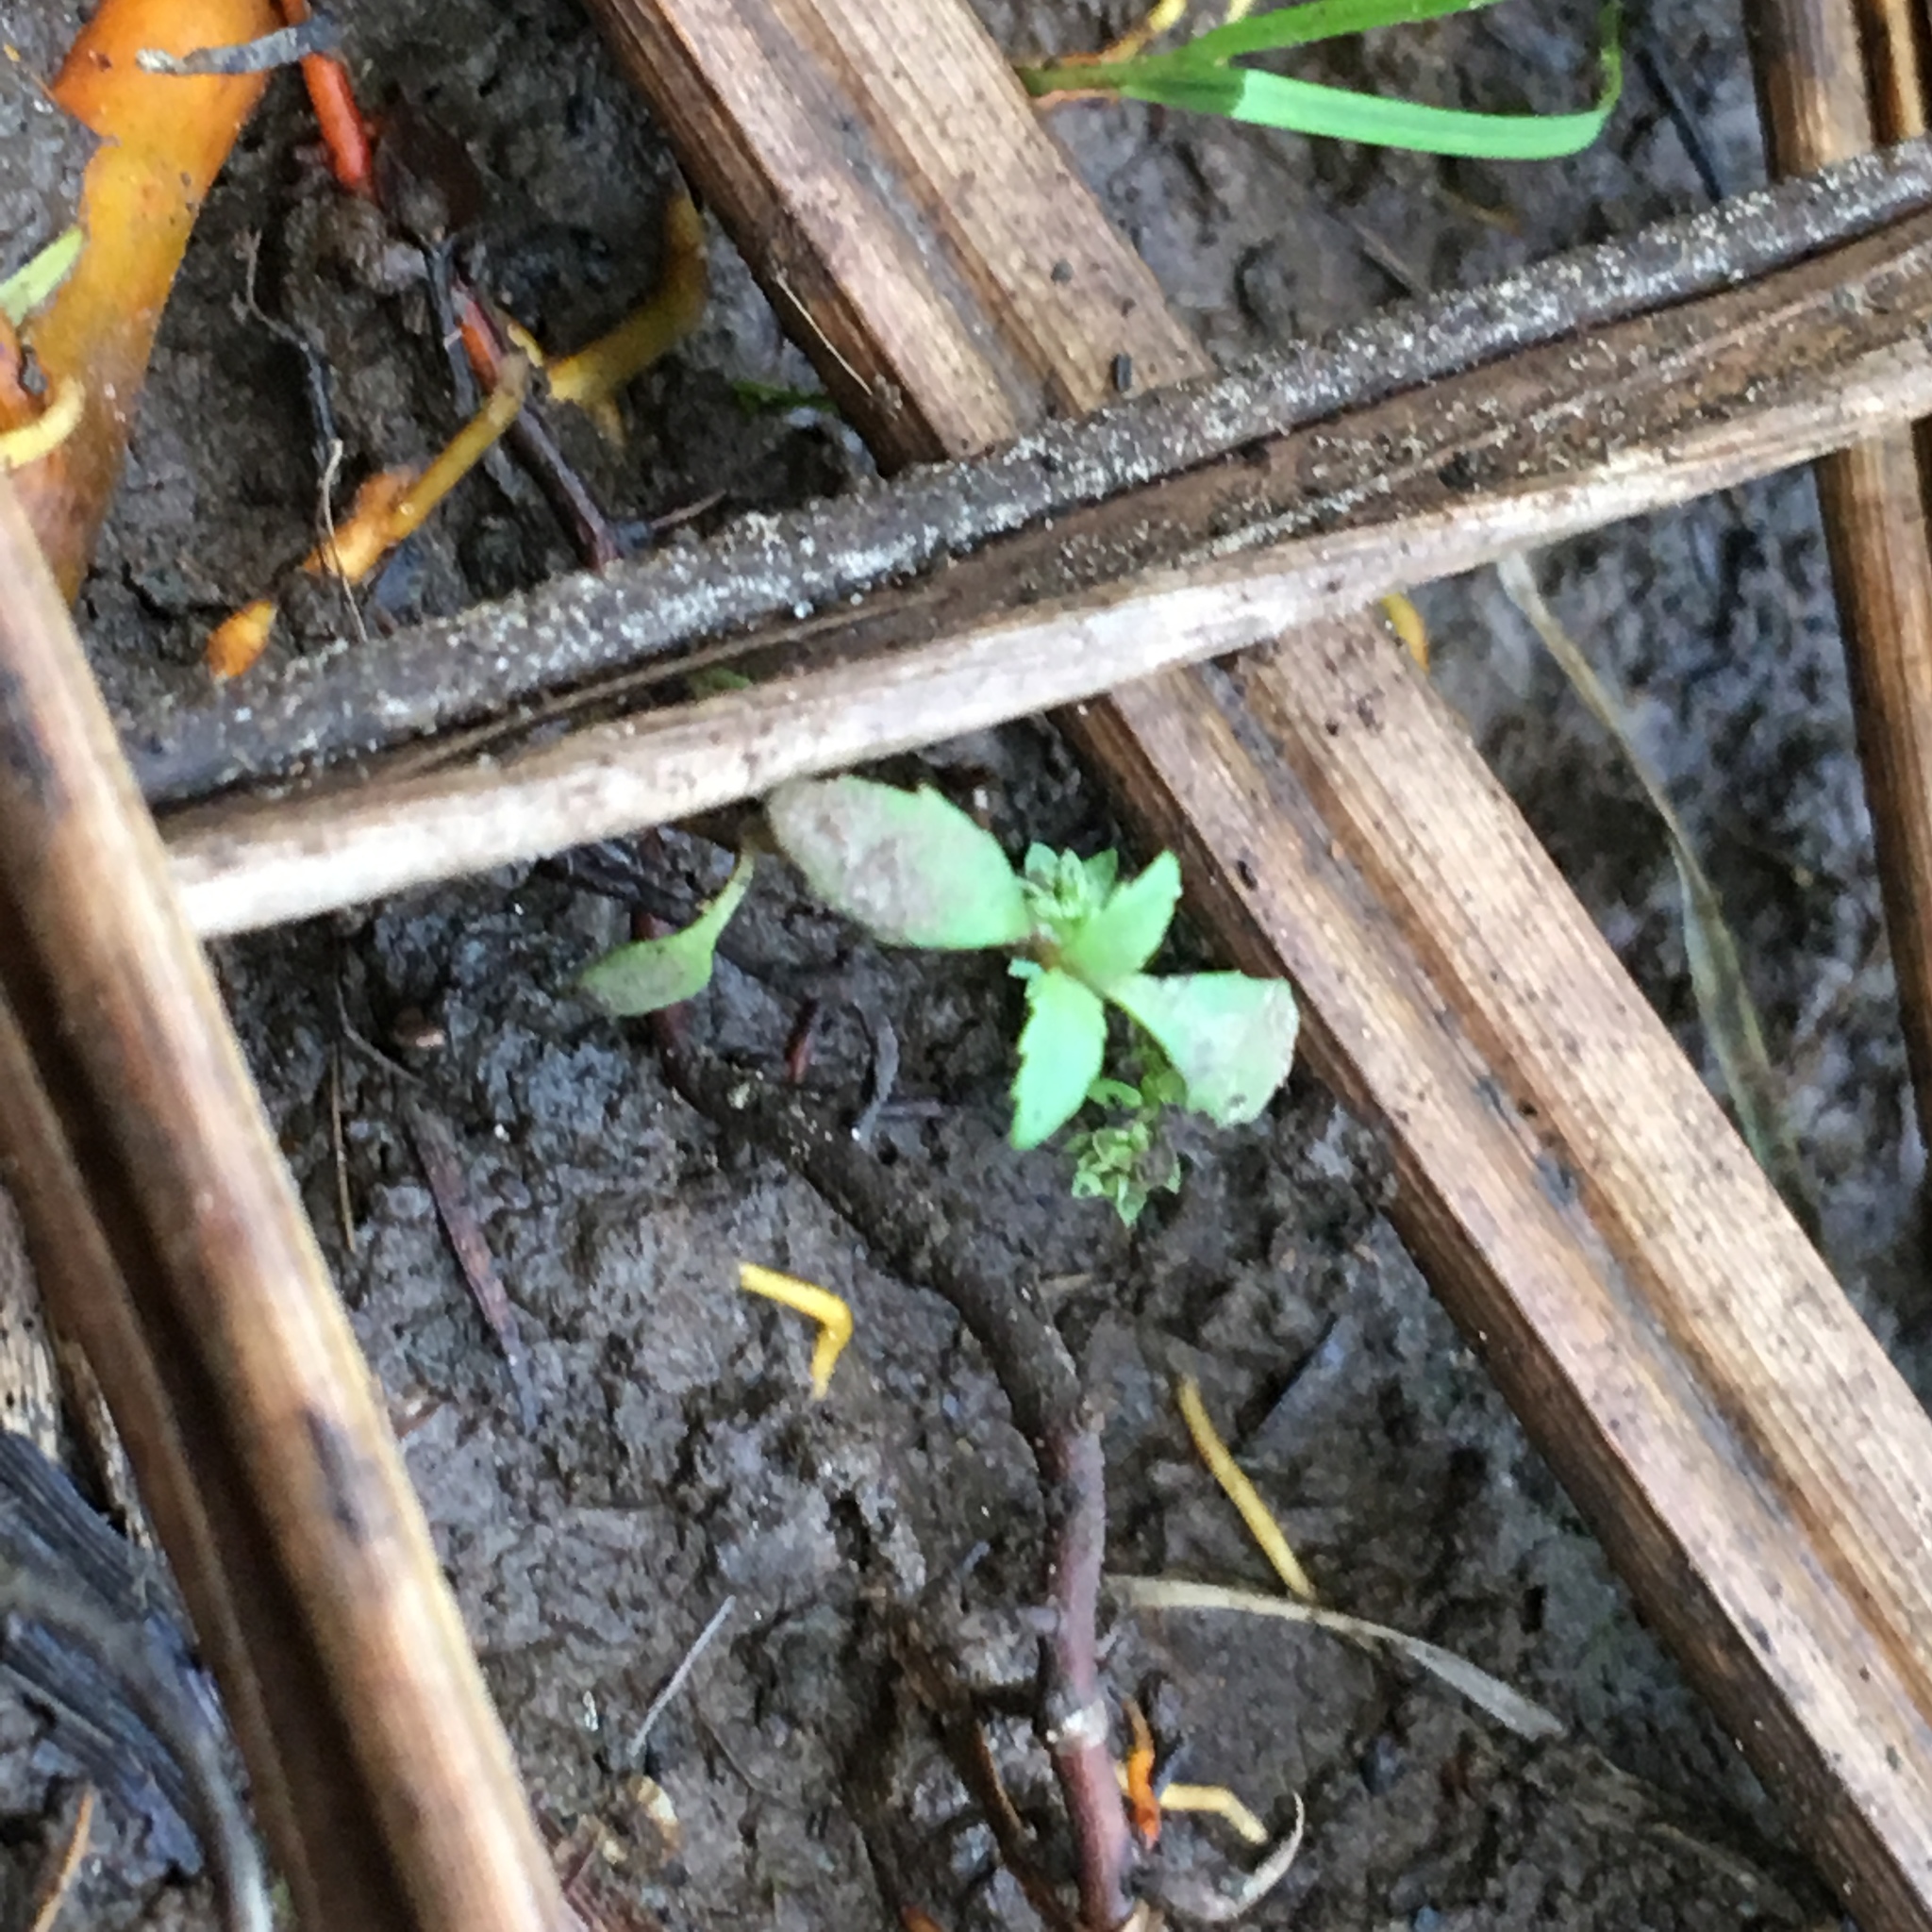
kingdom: Plantae
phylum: Tracheophyta
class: Magnoliopsida
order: Saxifragales
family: Haloragaceae
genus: Haloragis
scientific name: Haloragis erecta
